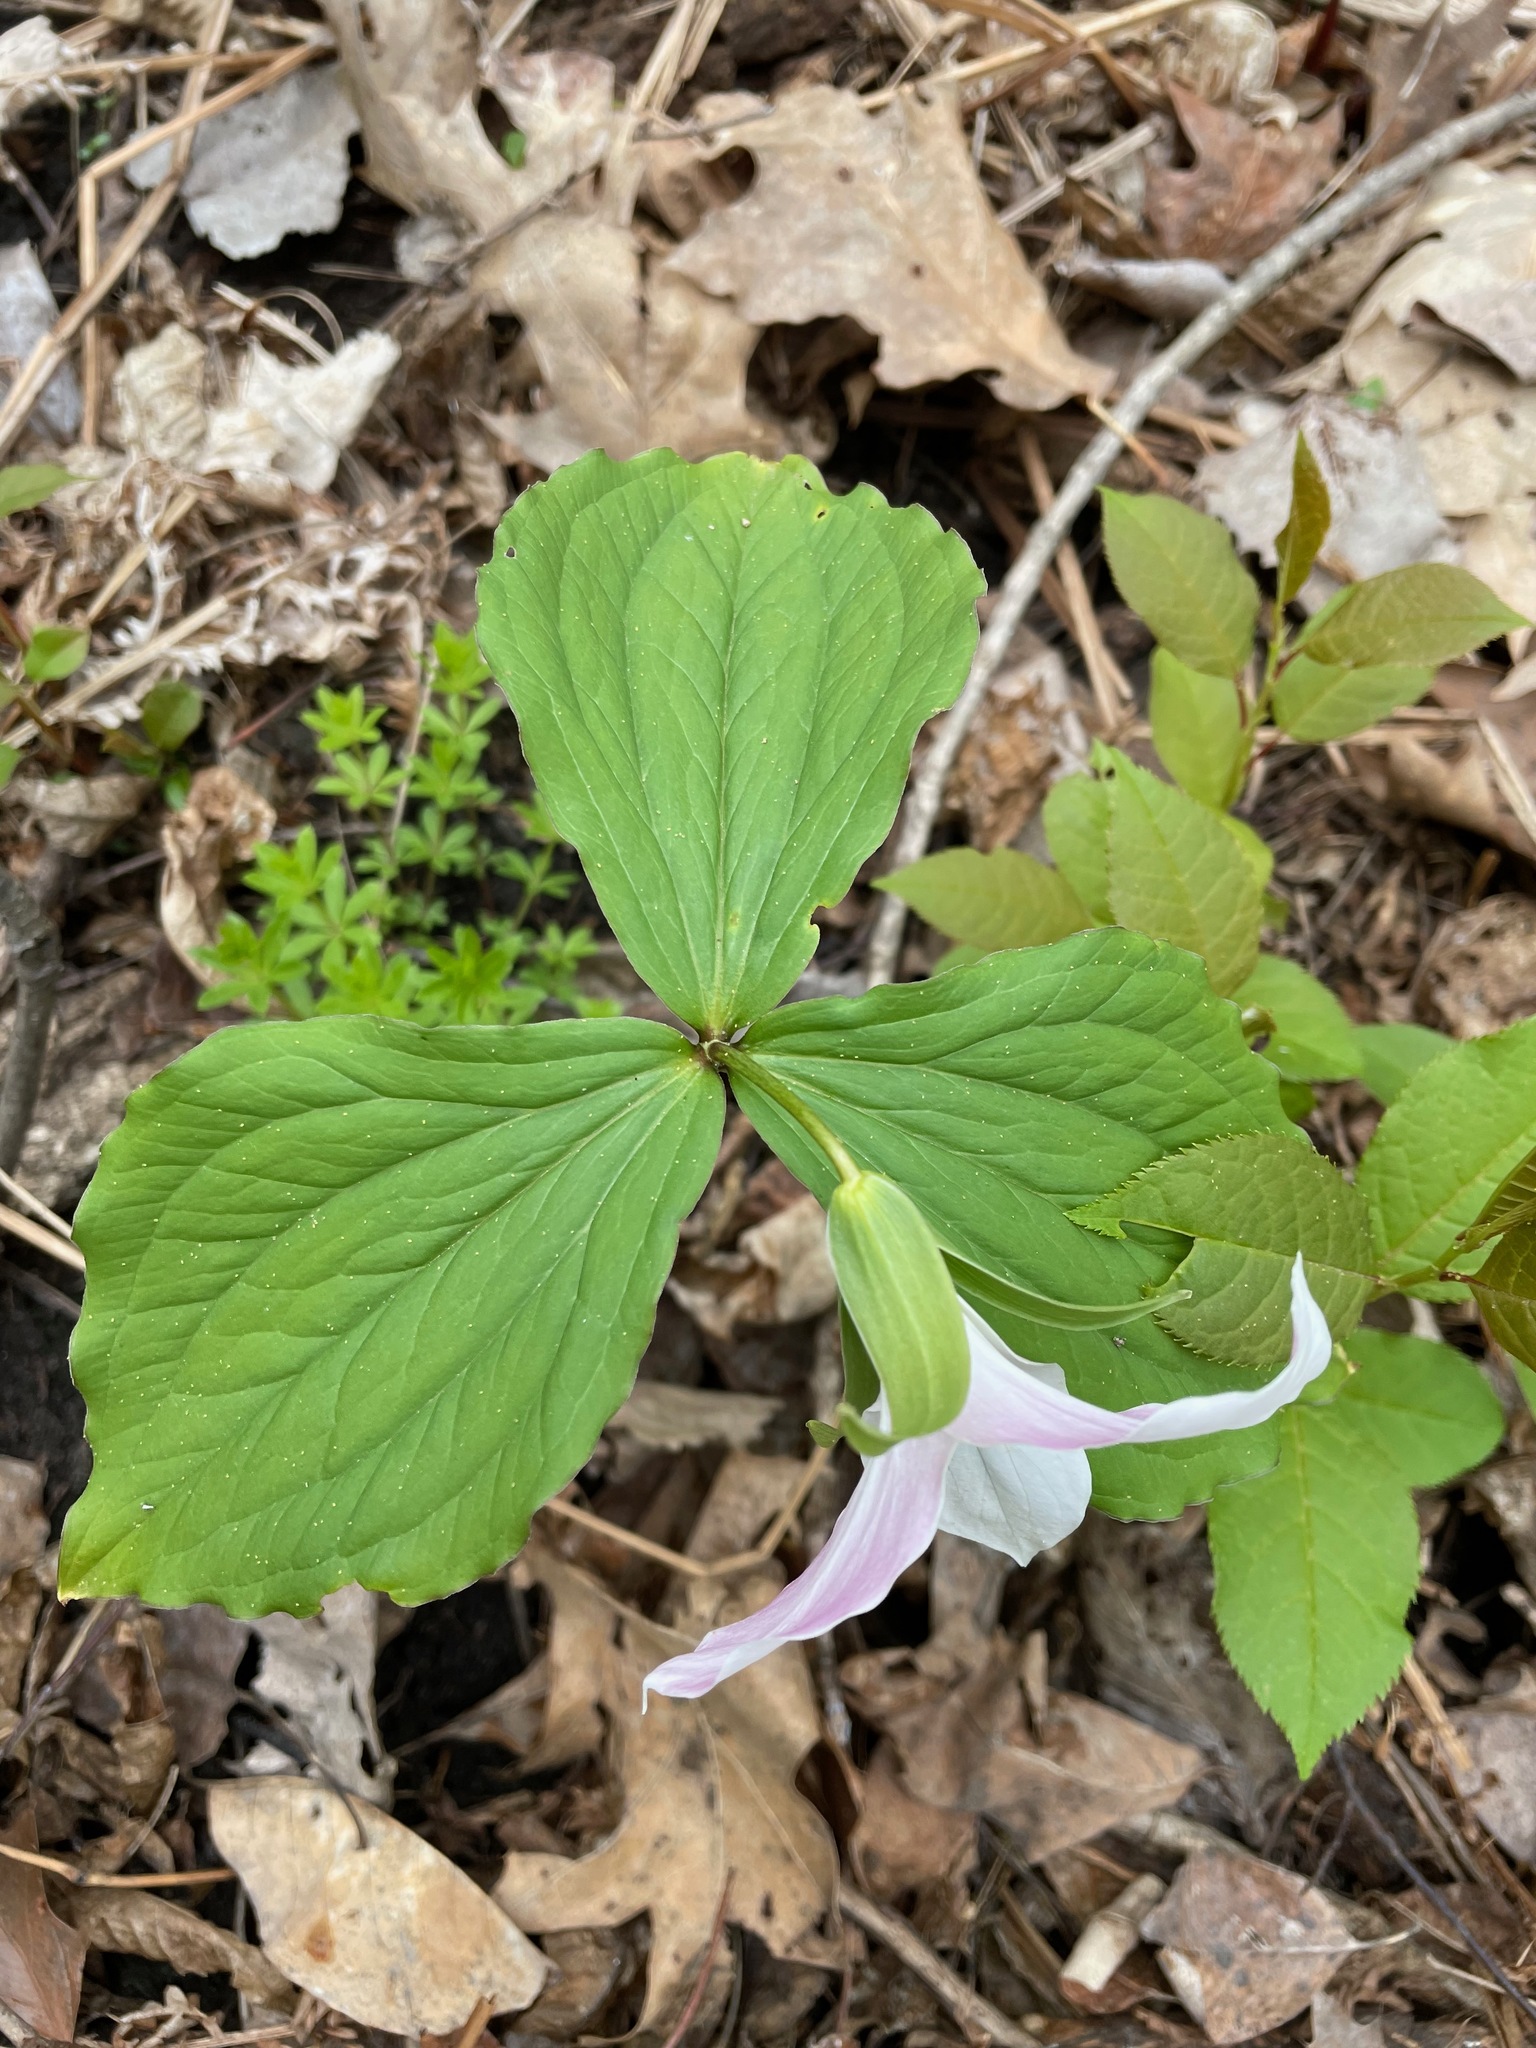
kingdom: Plantae
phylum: Tracheophyta
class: Liliopsida
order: Liliales
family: Melanthiaceae
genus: Trillium
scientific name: Trillium grandiflorum
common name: Great white trillium
